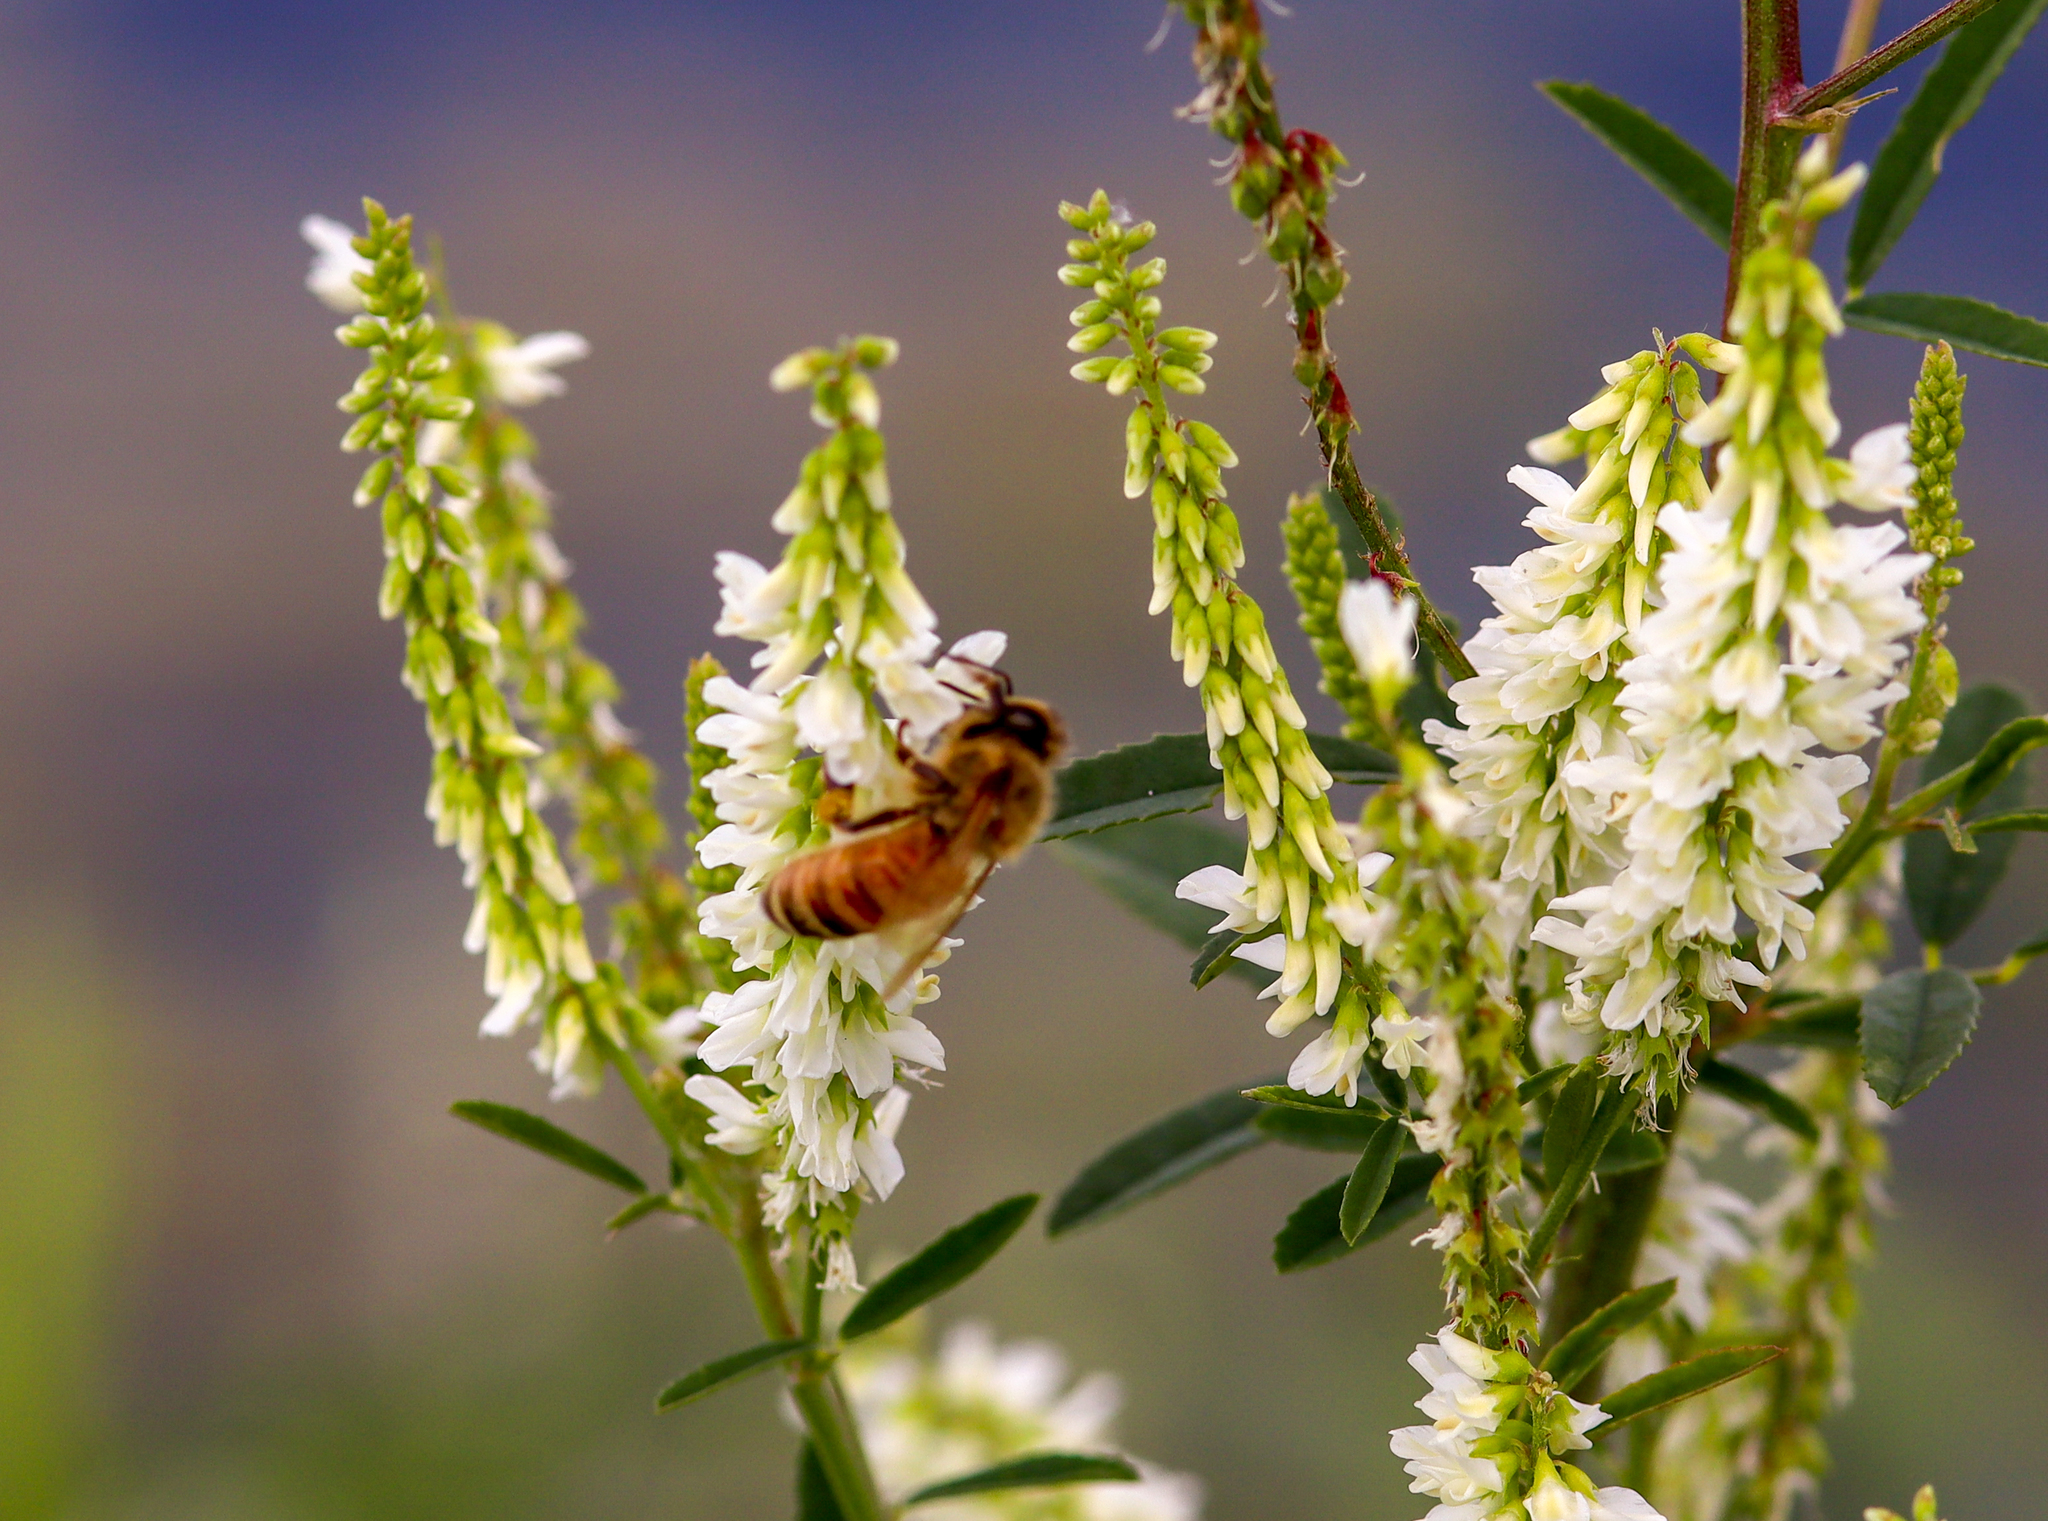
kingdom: Animalia
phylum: Arthropoda
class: Insecta
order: Hymenoptera
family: Apidae
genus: Apis
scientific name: Apis mellifera
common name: Honey bee
